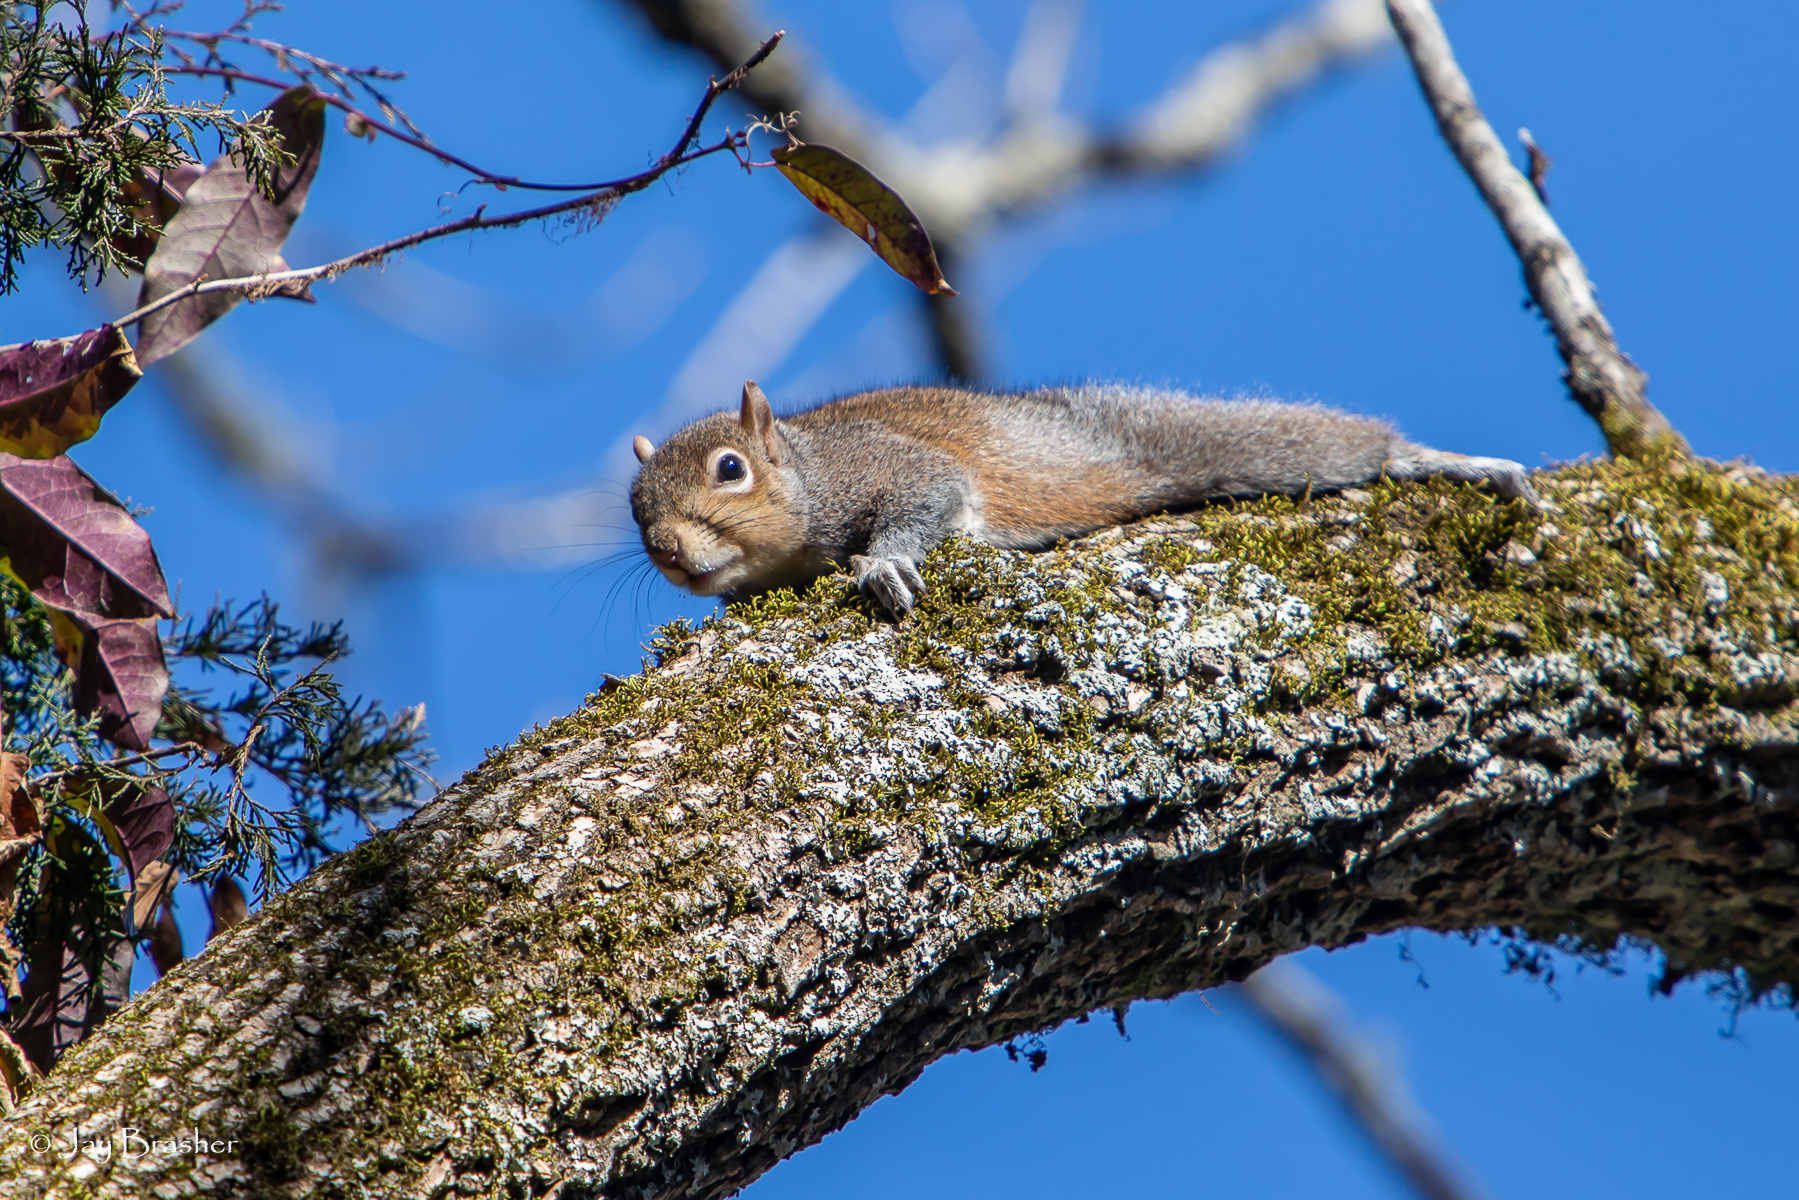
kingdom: Animalia
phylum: Chordata
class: Mammalia
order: Rodentia
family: Sciuridae
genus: Sciurus
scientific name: Sciurus carolinensis
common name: Eastern gray squirrel
